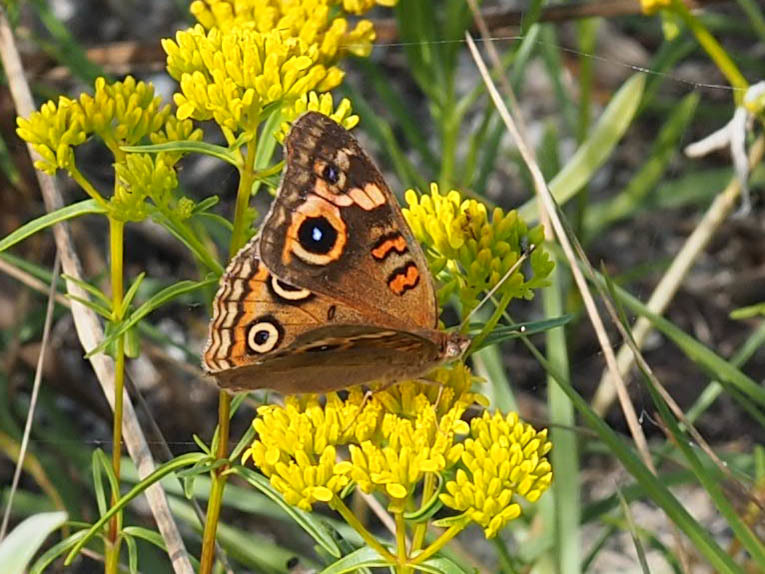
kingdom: Animalia
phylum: Arthropoda
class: Insecta
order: Lepidoptera
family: Nymphalidae
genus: Junonia
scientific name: Junonia neildi
